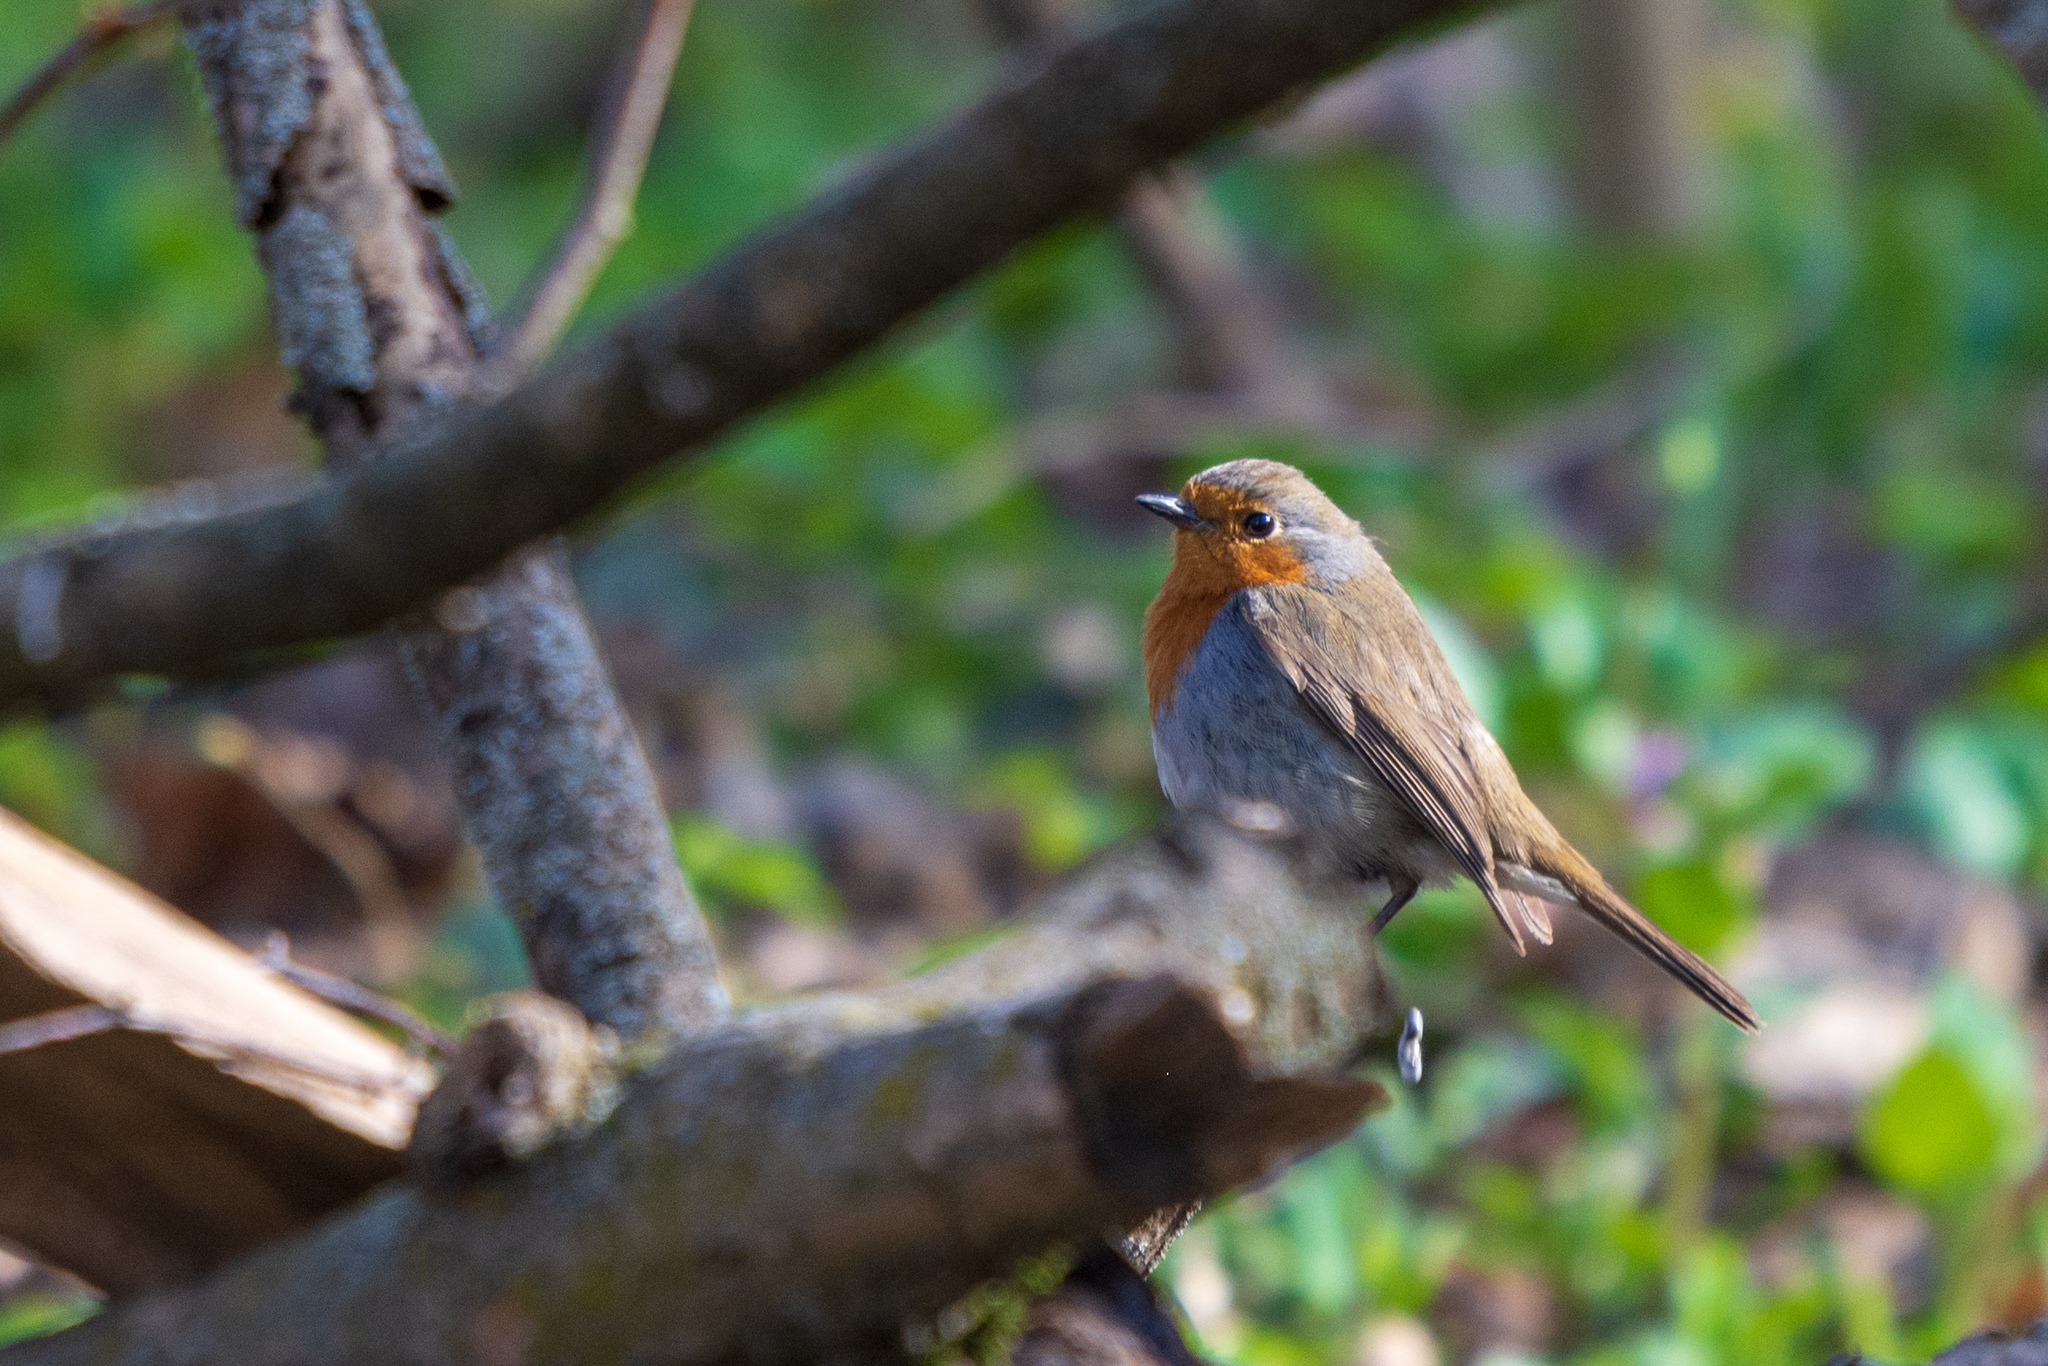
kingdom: Animalia
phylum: Chordata
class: Aves
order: Passeriformes
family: Muscicapidae
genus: Erithacus
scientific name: Erithacus rubecula
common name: European robin
